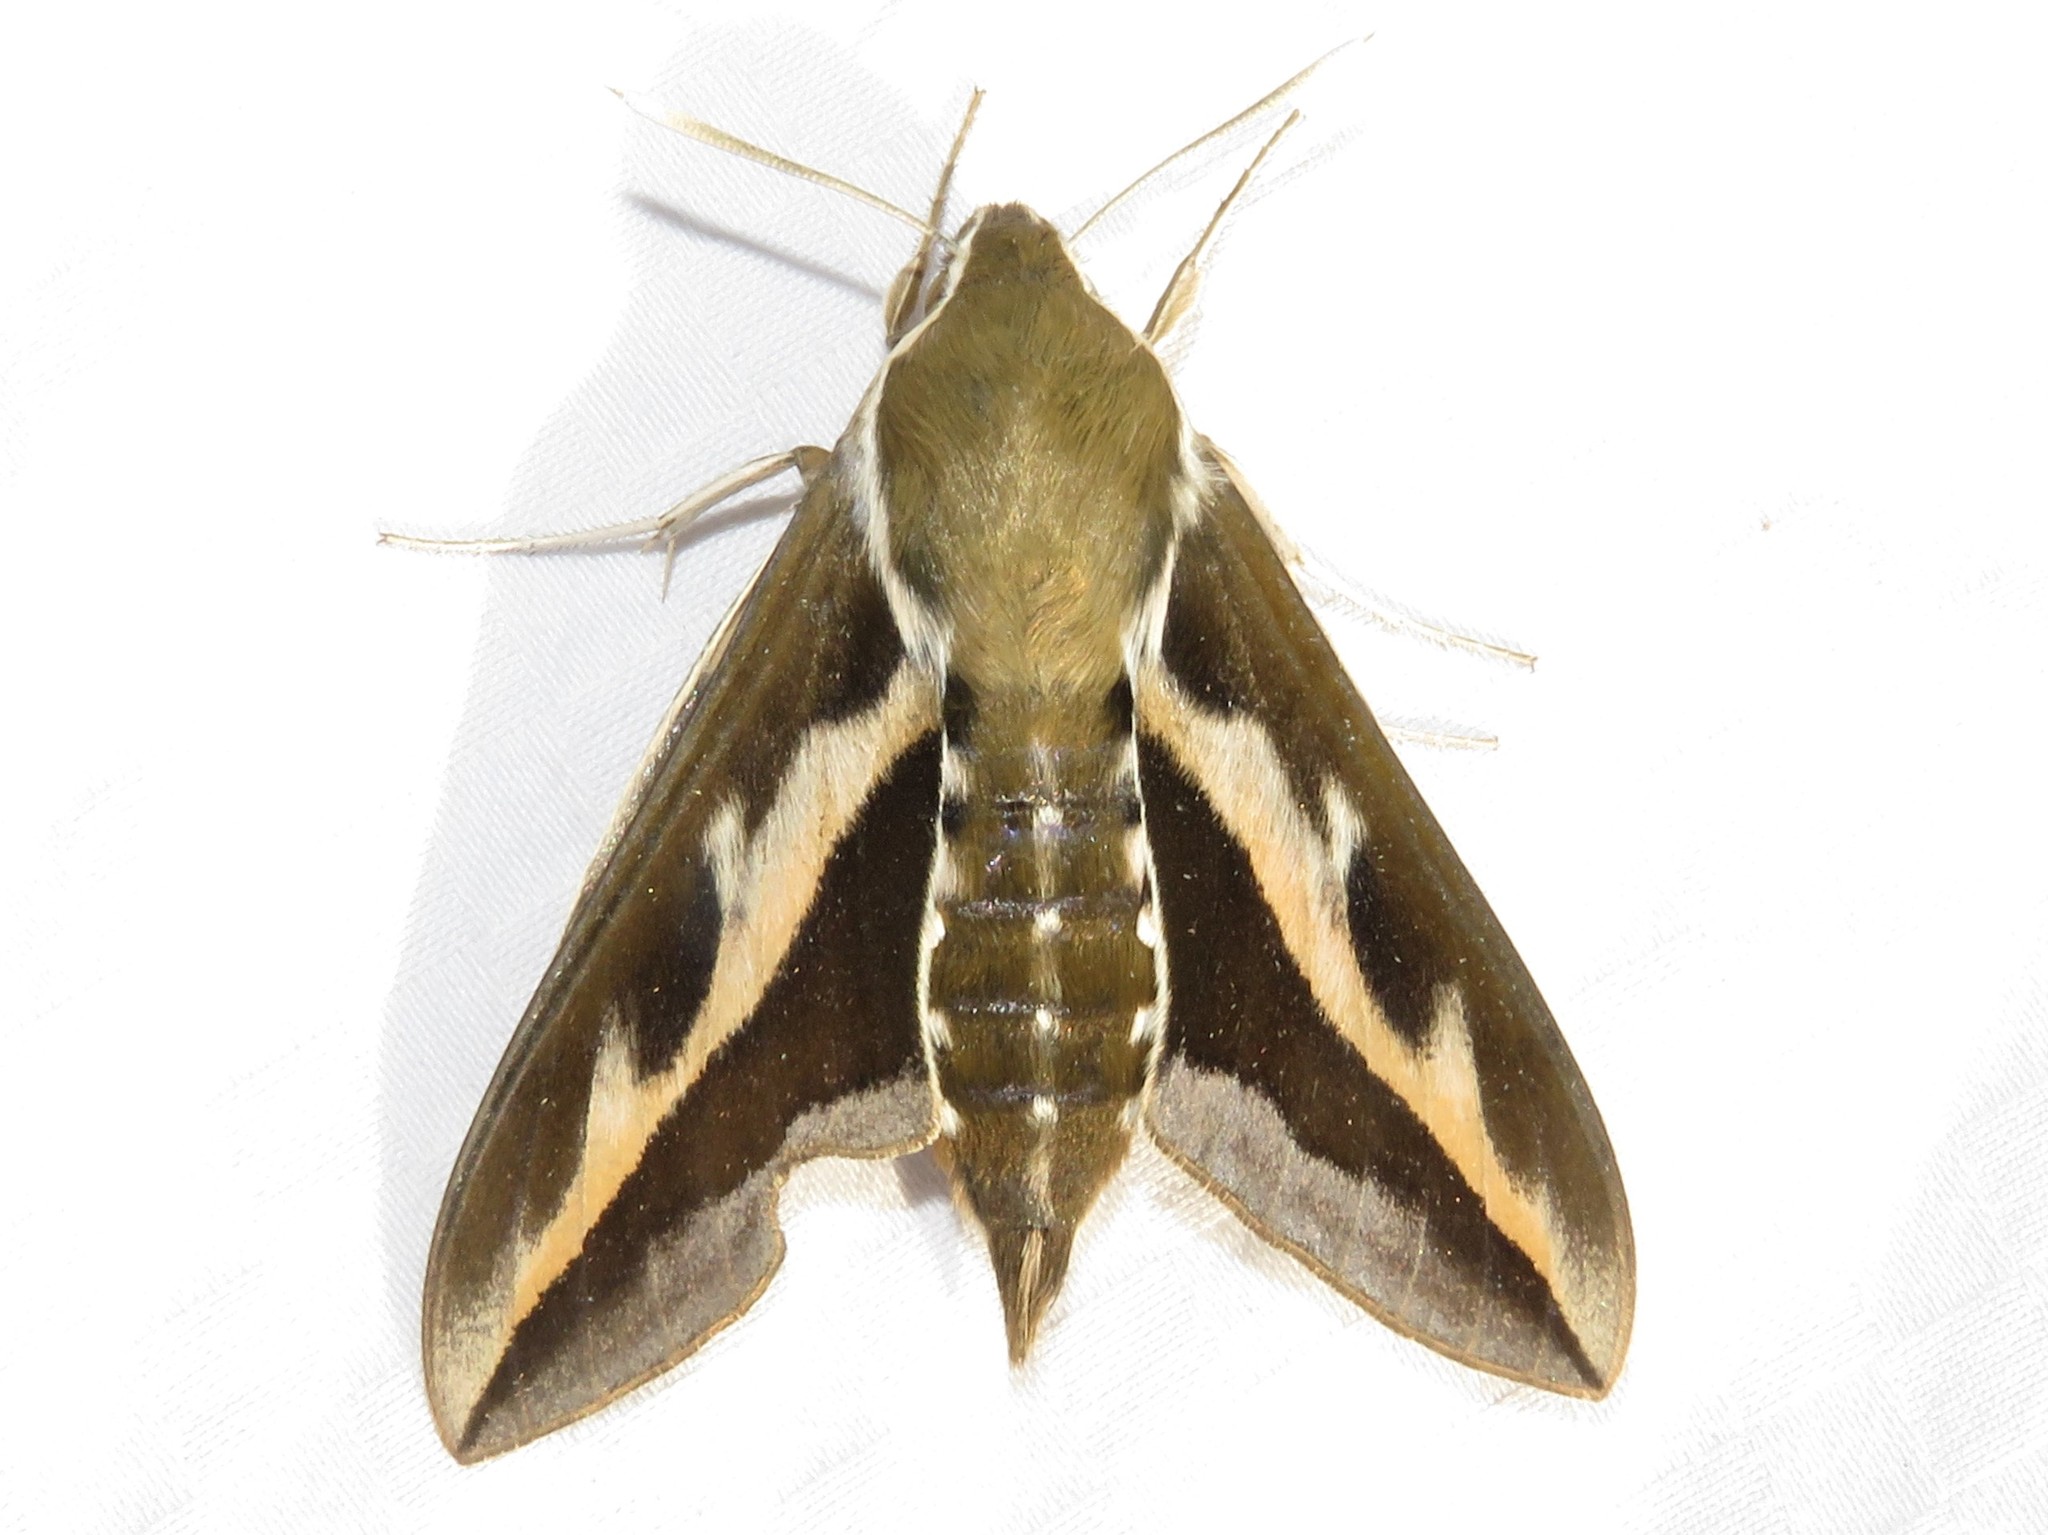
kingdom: Animalia
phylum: Arthropoda
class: Insecta
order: Lepidoptera
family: Sphingidae
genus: Hyles
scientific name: Hyles gallii
